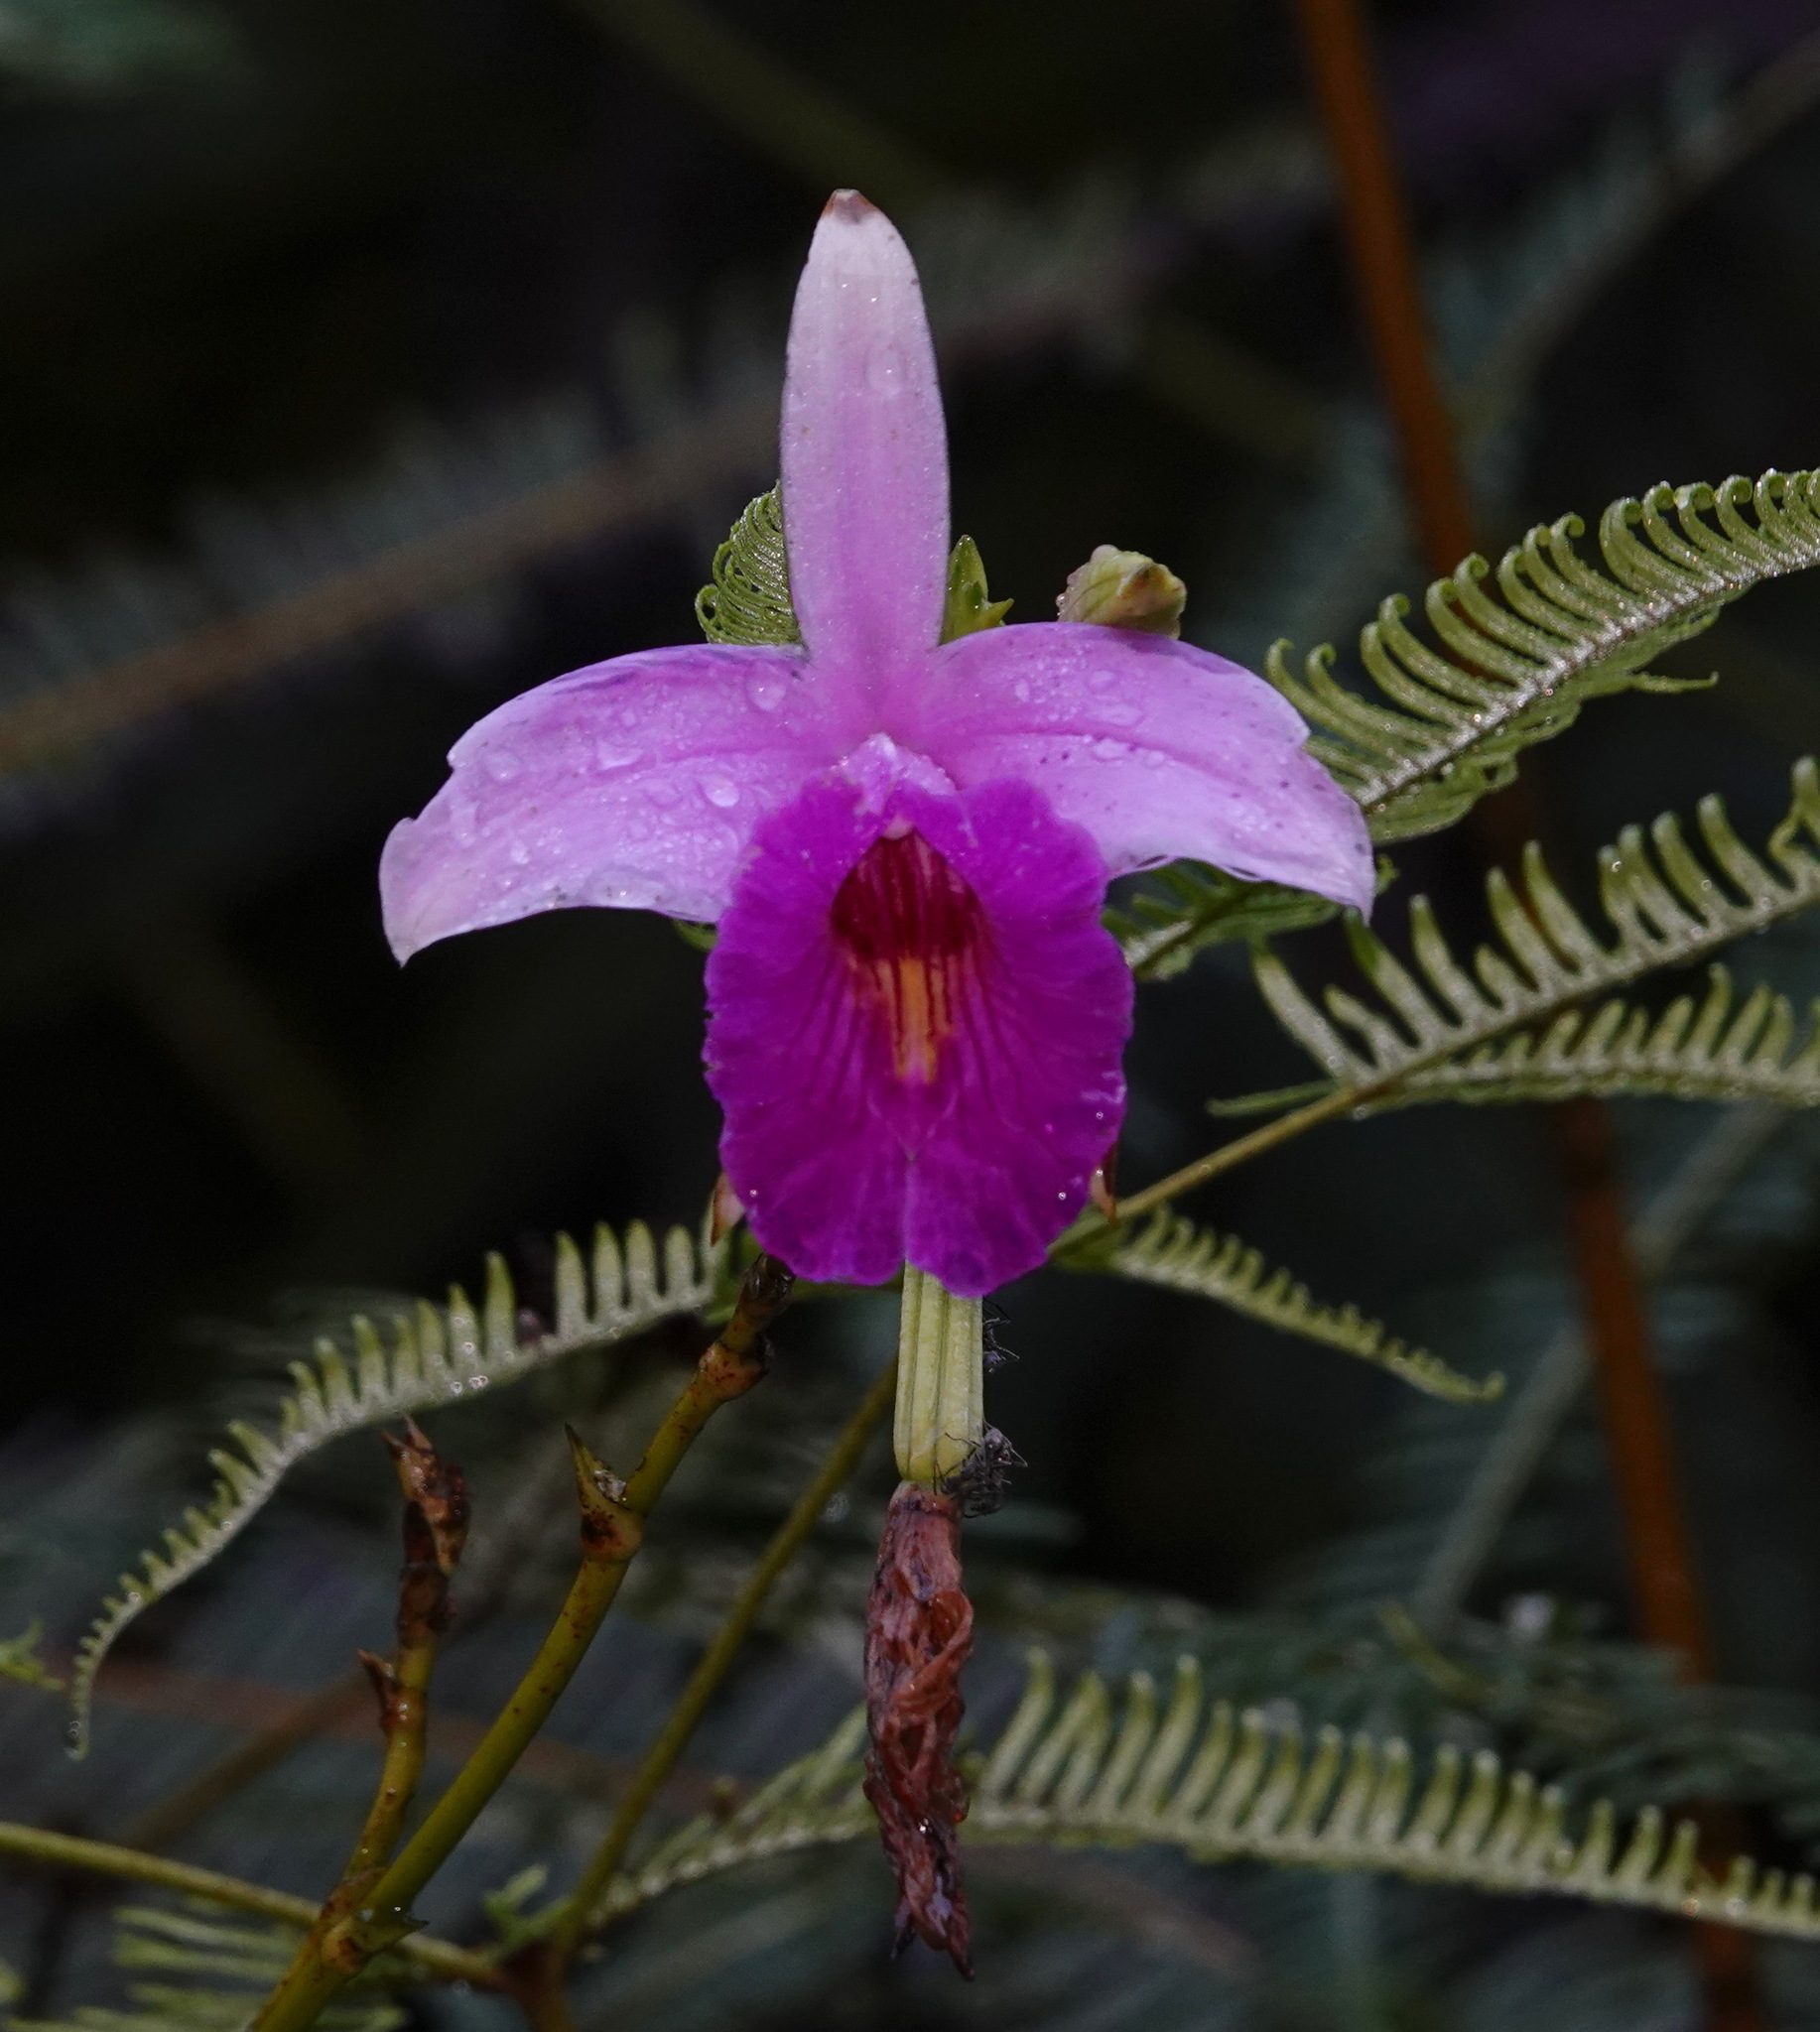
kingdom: Plantae
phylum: Tracheophyta
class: Liliopsida
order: Asparagales
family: Orchidaceae
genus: Arundina
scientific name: Arundina graminifolia
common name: Bamboo orchid
